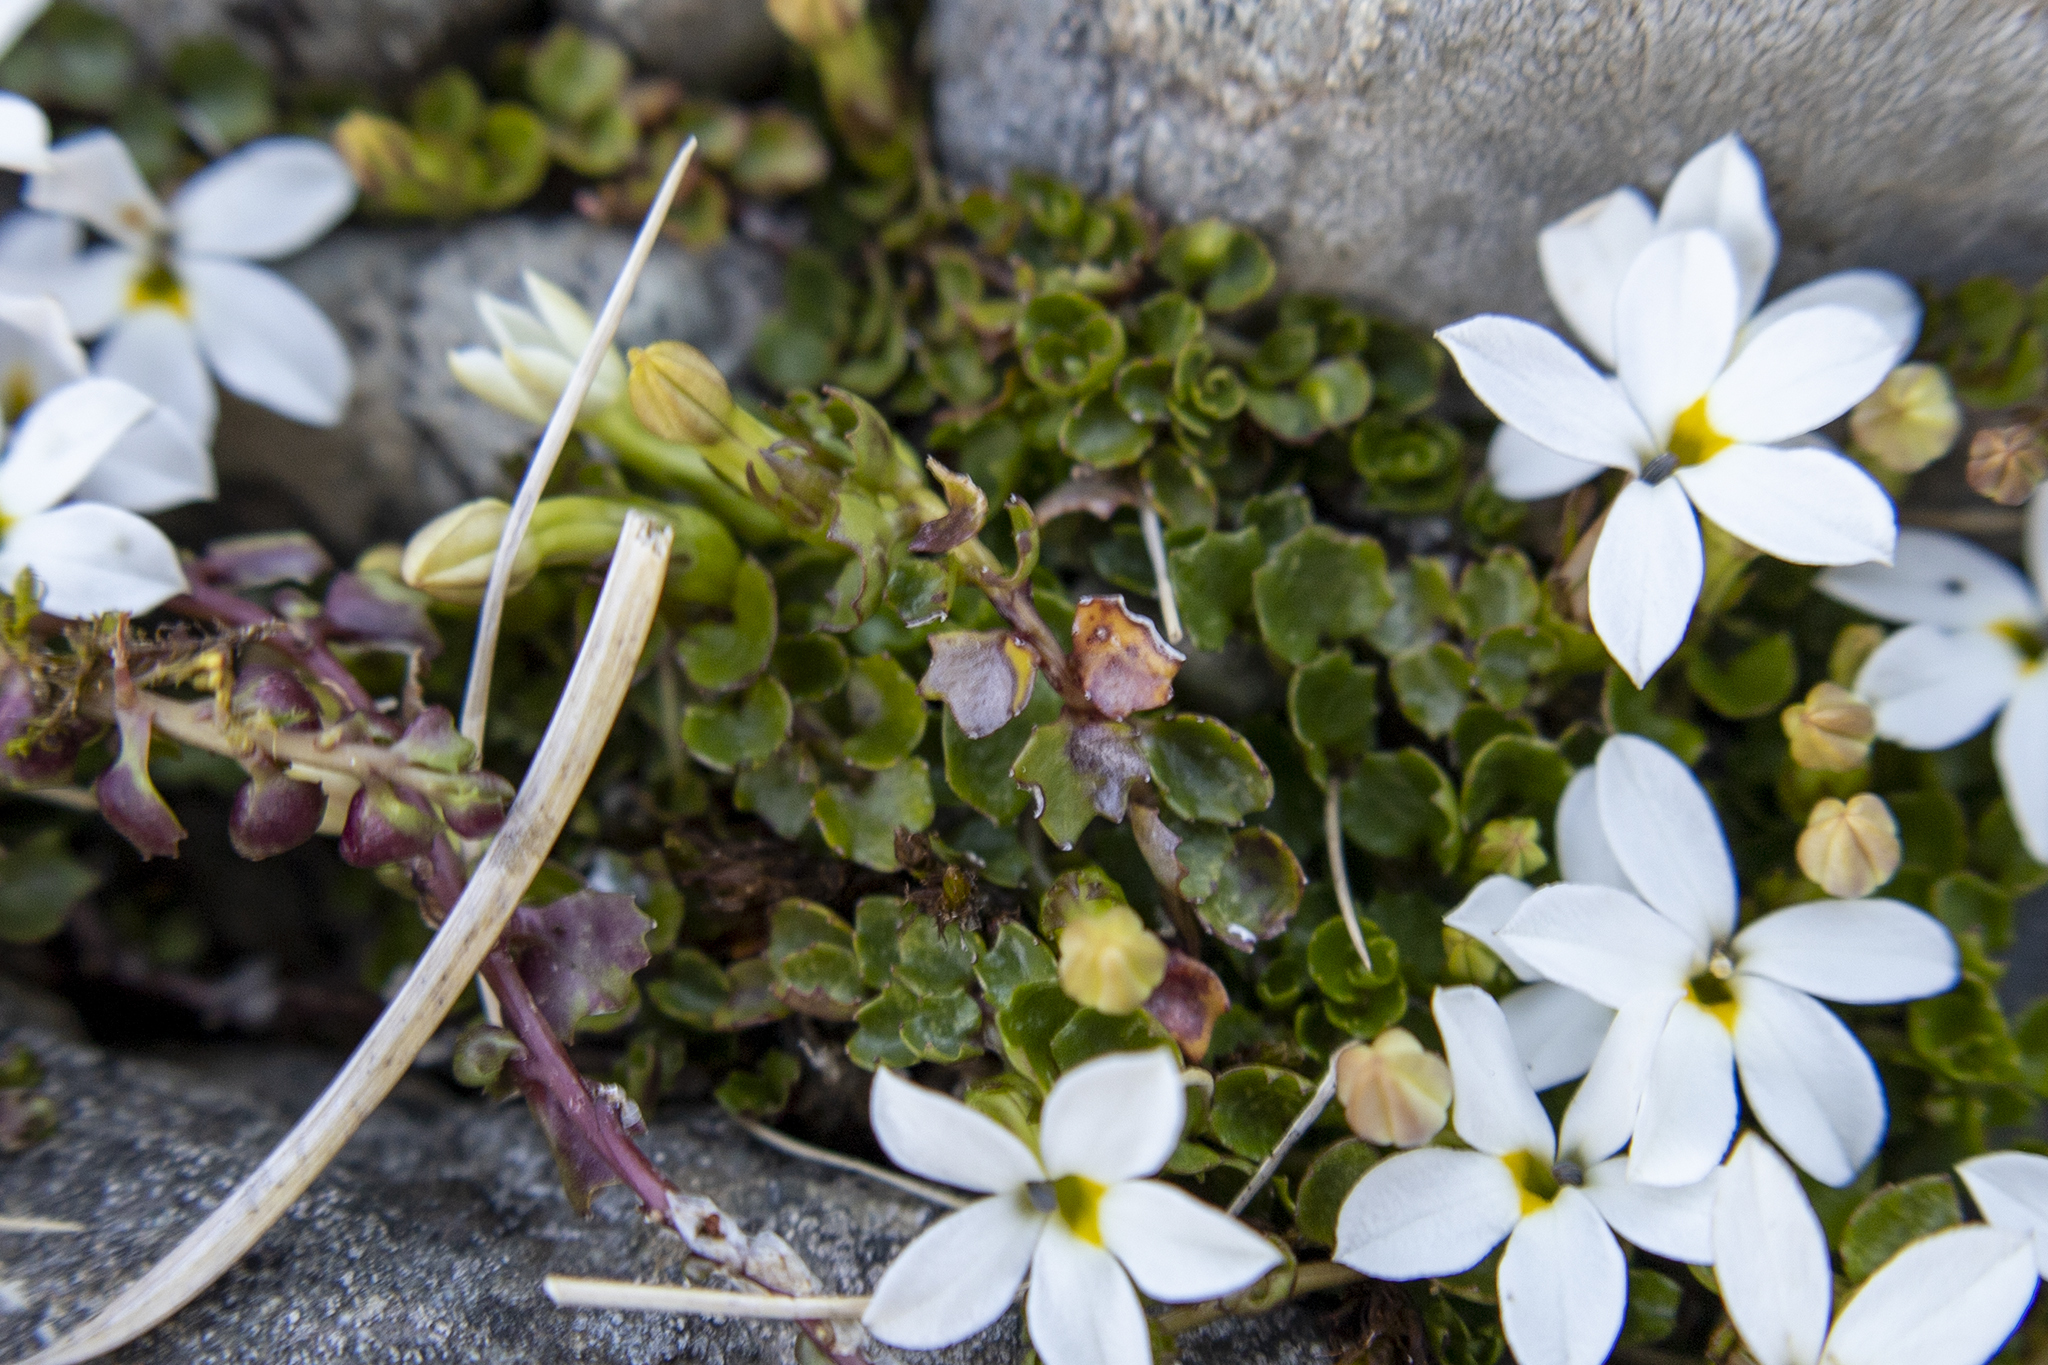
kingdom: Plantae
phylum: Tracheophyta
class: Magnoliopsida
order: Asterales
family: Campanulaceae
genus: Lobelia
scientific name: Lobelia macrodon
